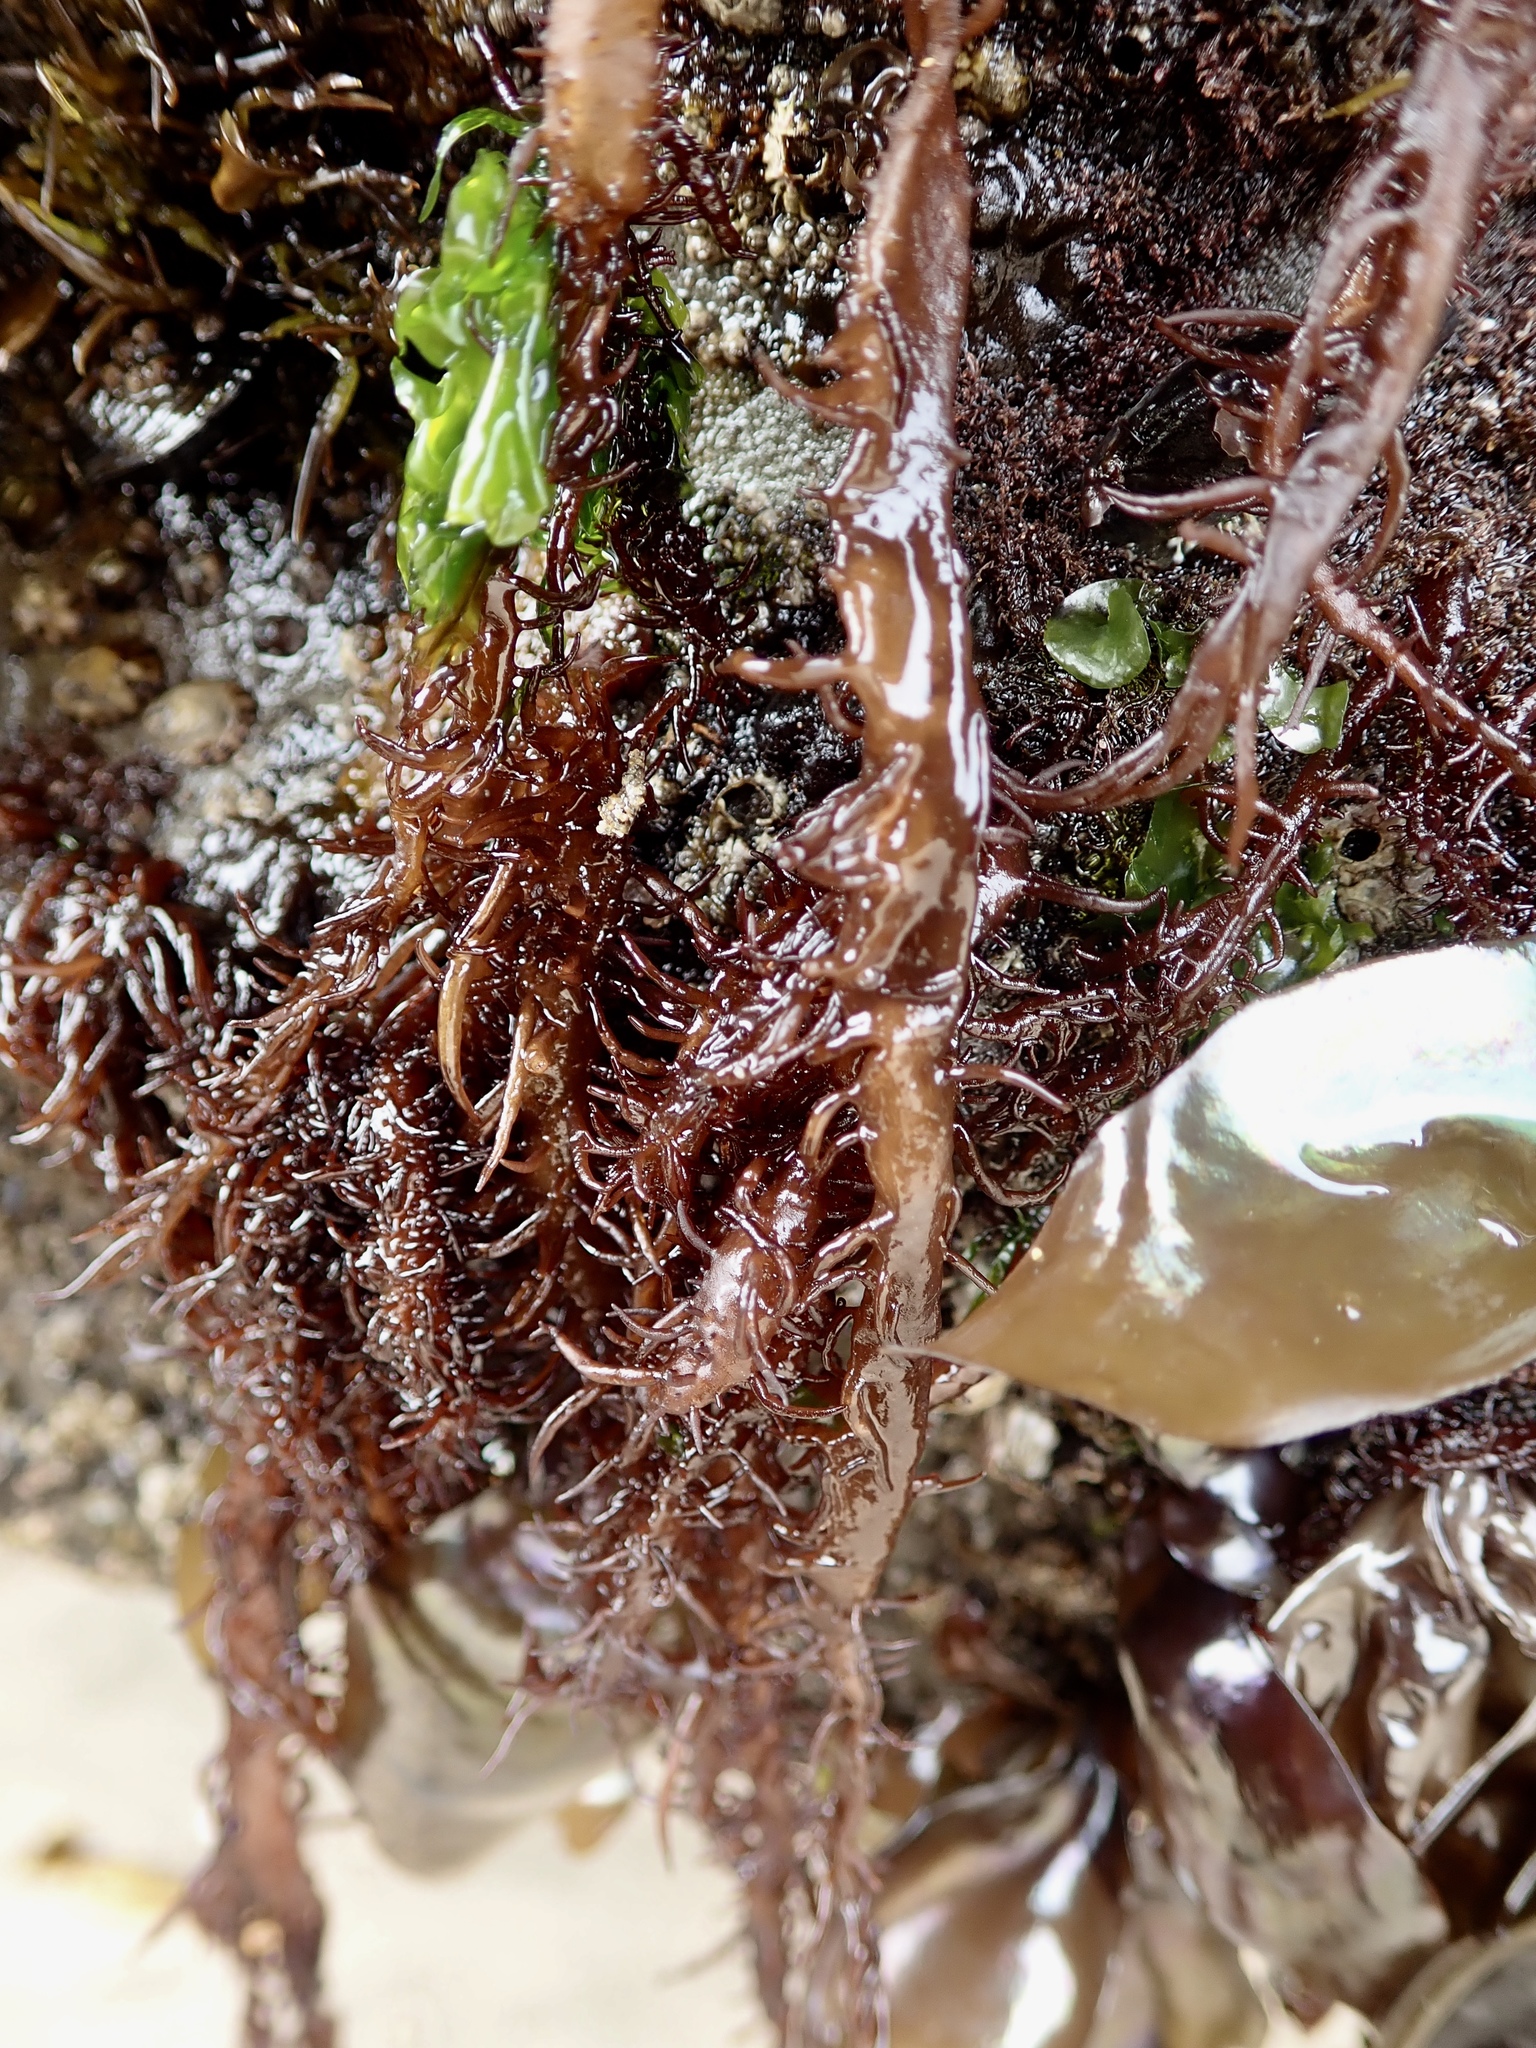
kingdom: Plantae
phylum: Rhodophyta
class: Florideophyceae
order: Nemaliales
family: Liagoraceae
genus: Cumagloia
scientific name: Cumagloia andersonii
